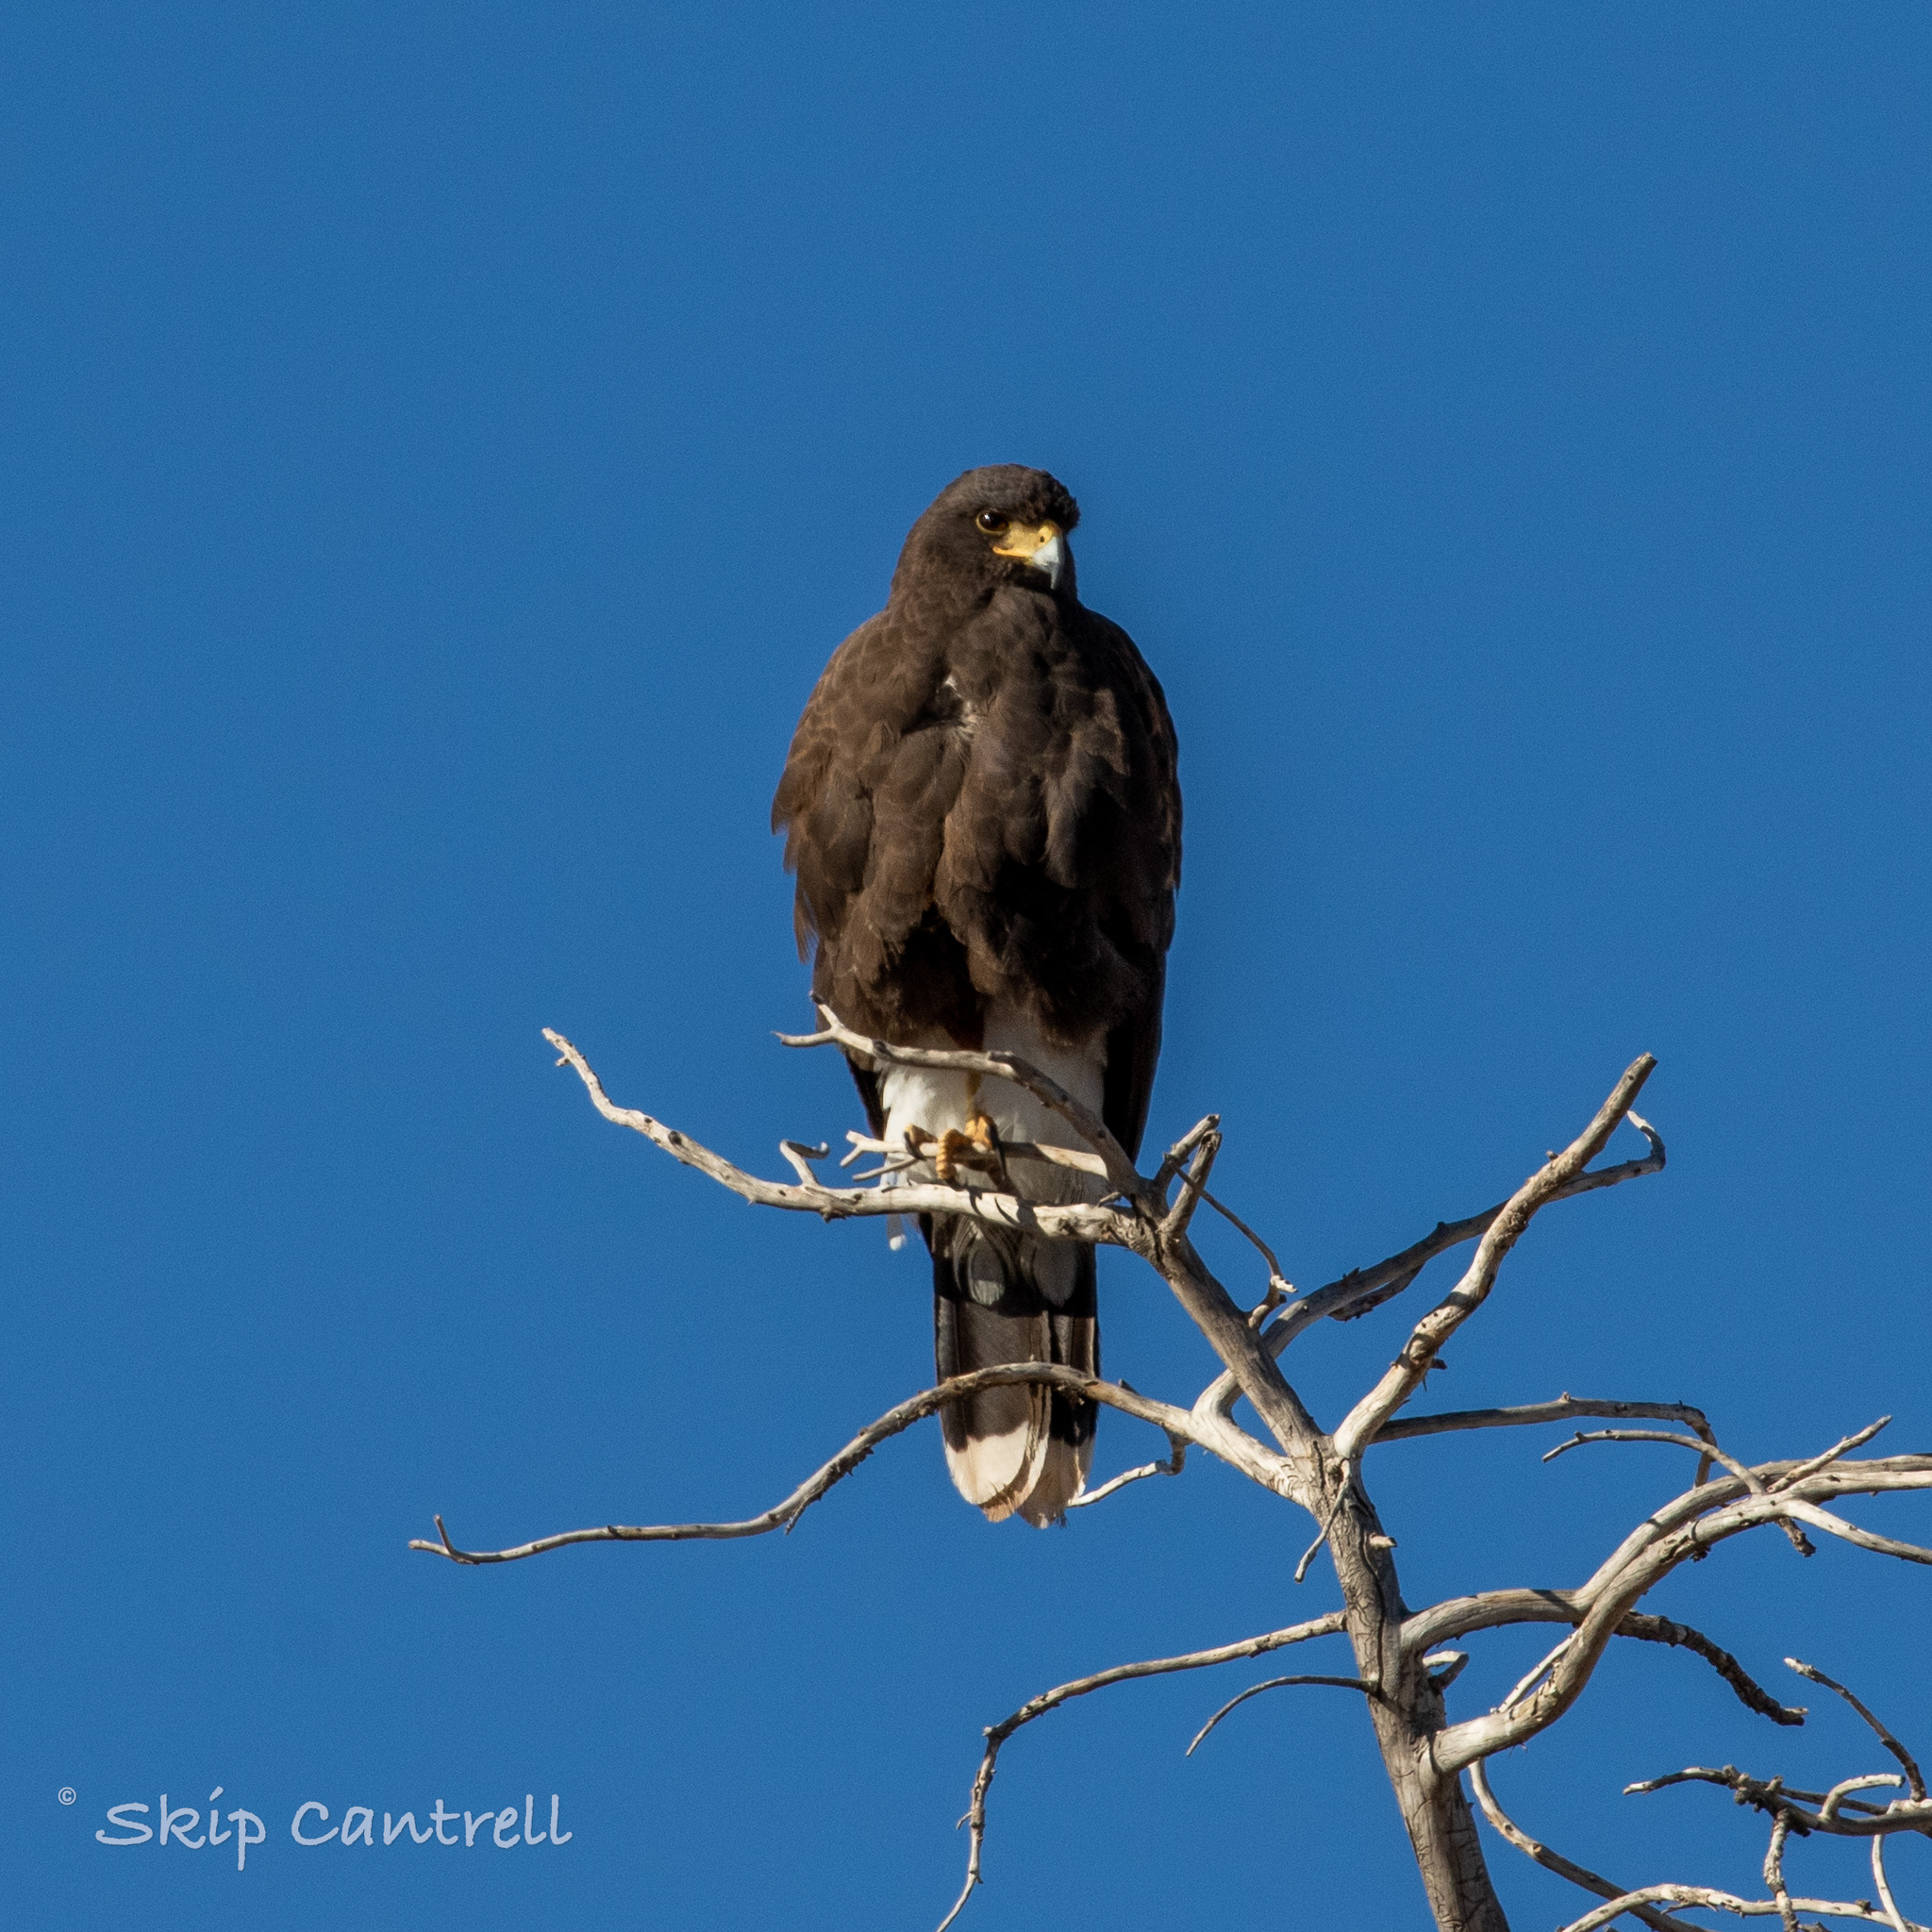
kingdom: Animalia
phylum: Chordata
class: Aves
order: Accipitriformes
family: Accipitridae
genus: Parabuteo
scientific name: Parabuteo unicinctus
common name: Harris's hawk
